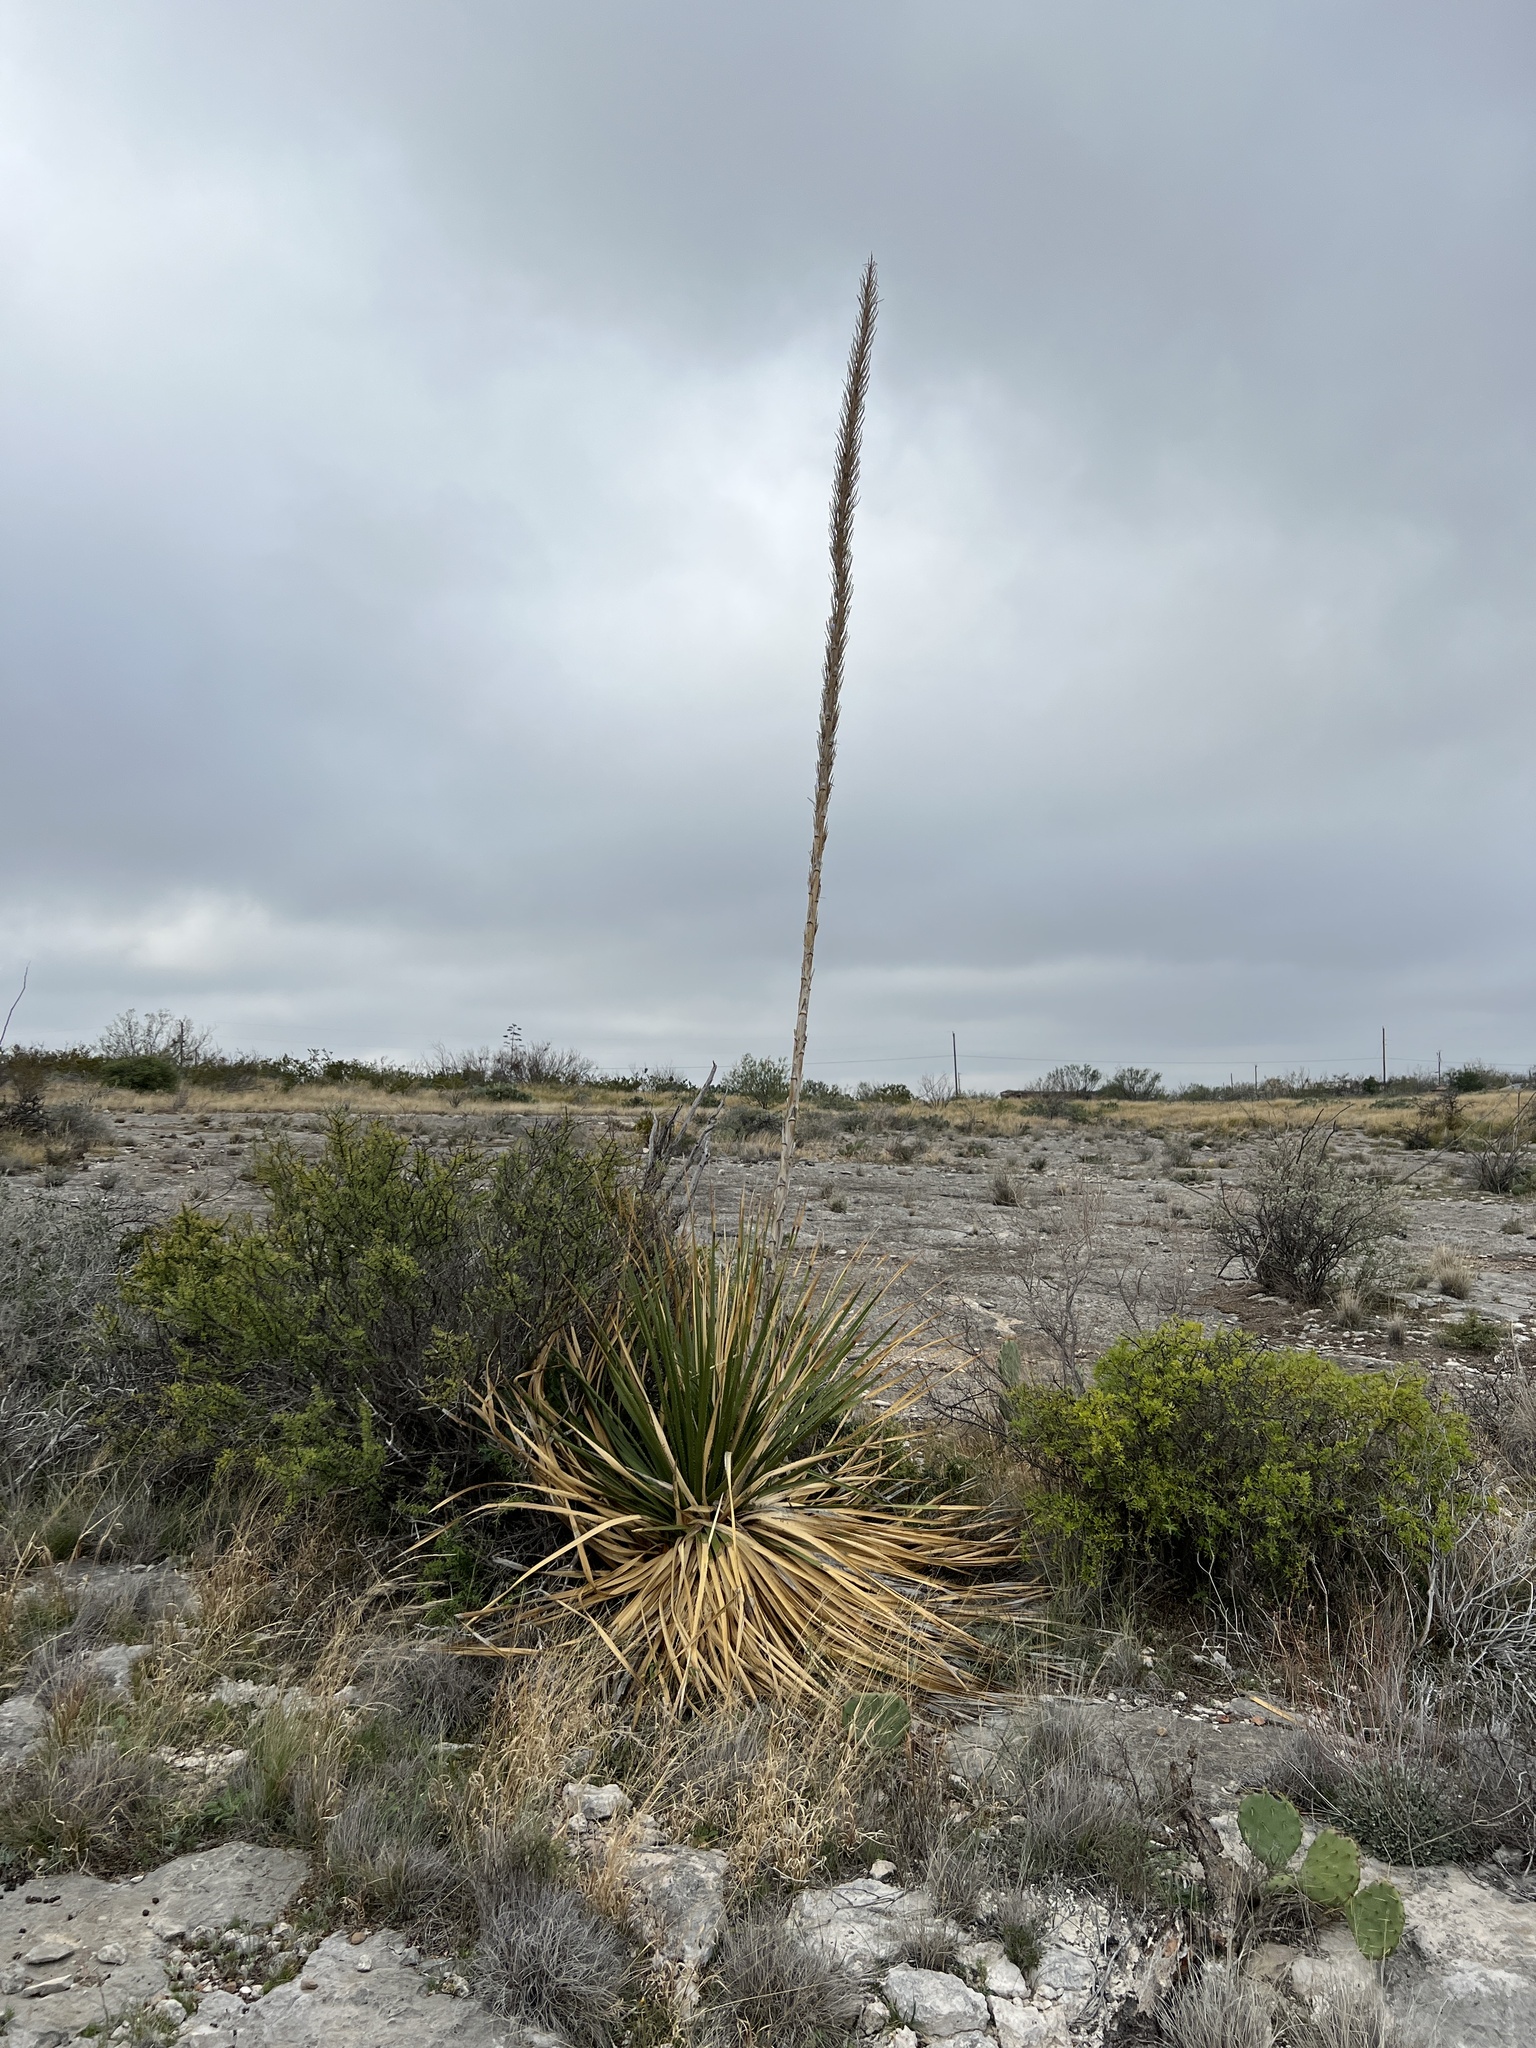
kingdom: Plantae
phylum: Tracheophyta
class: Liliopsida
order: Asparagales
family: Asparagaceae
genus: Dasylirion
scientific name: Dasylirion texanum
